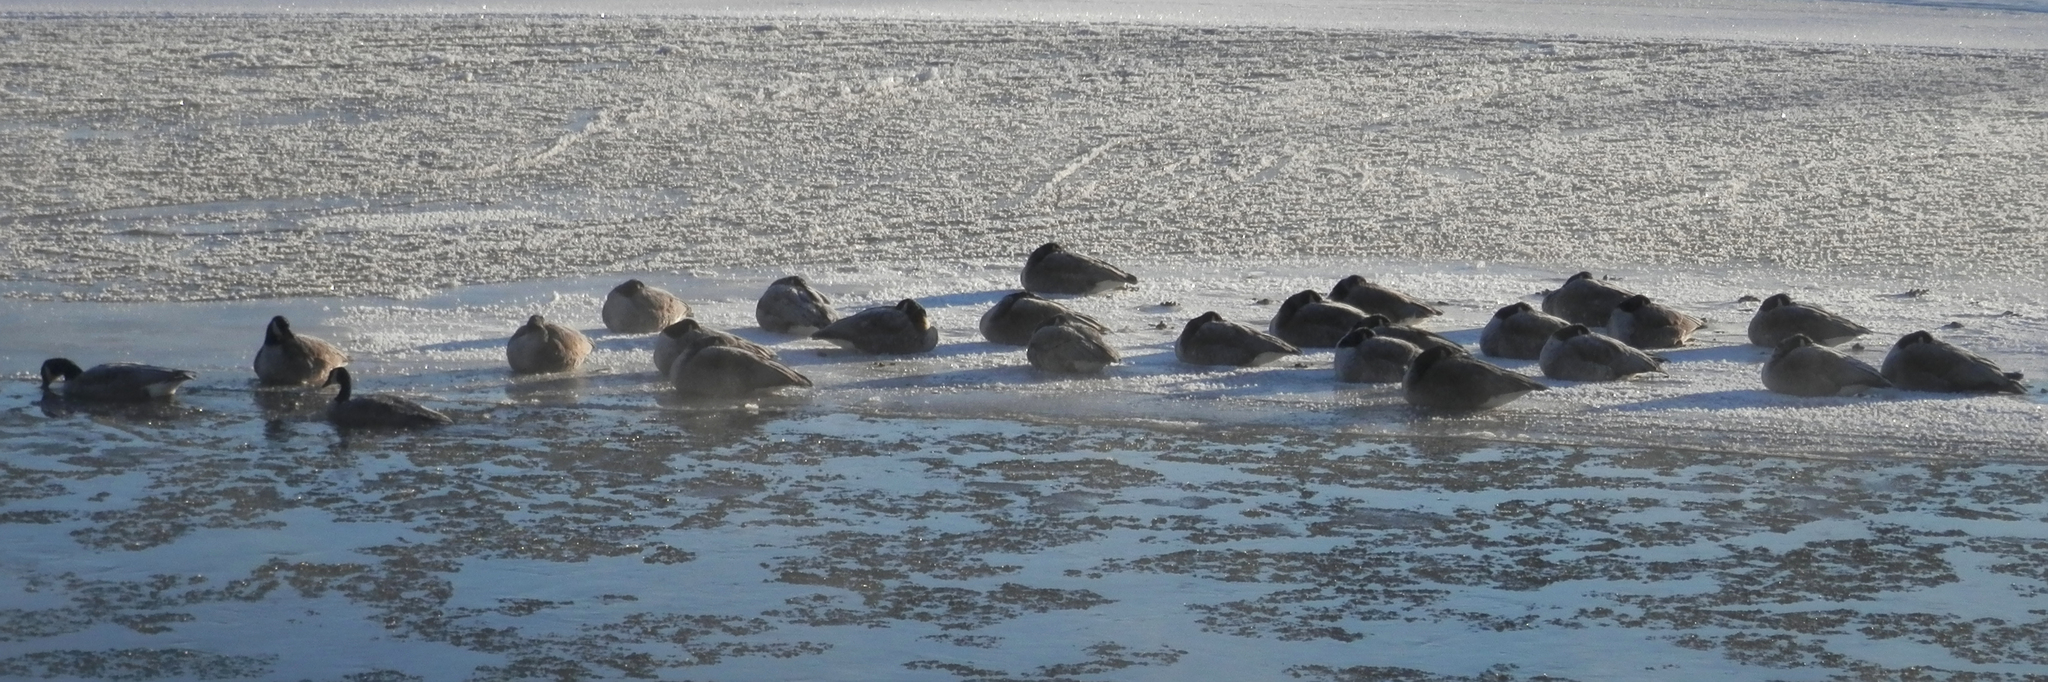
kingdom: Animalia
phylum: Chordata
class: Aves
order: Anseriformes
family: Anatidae
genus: Branta
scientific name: Branta canadensis
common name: Canada goose
